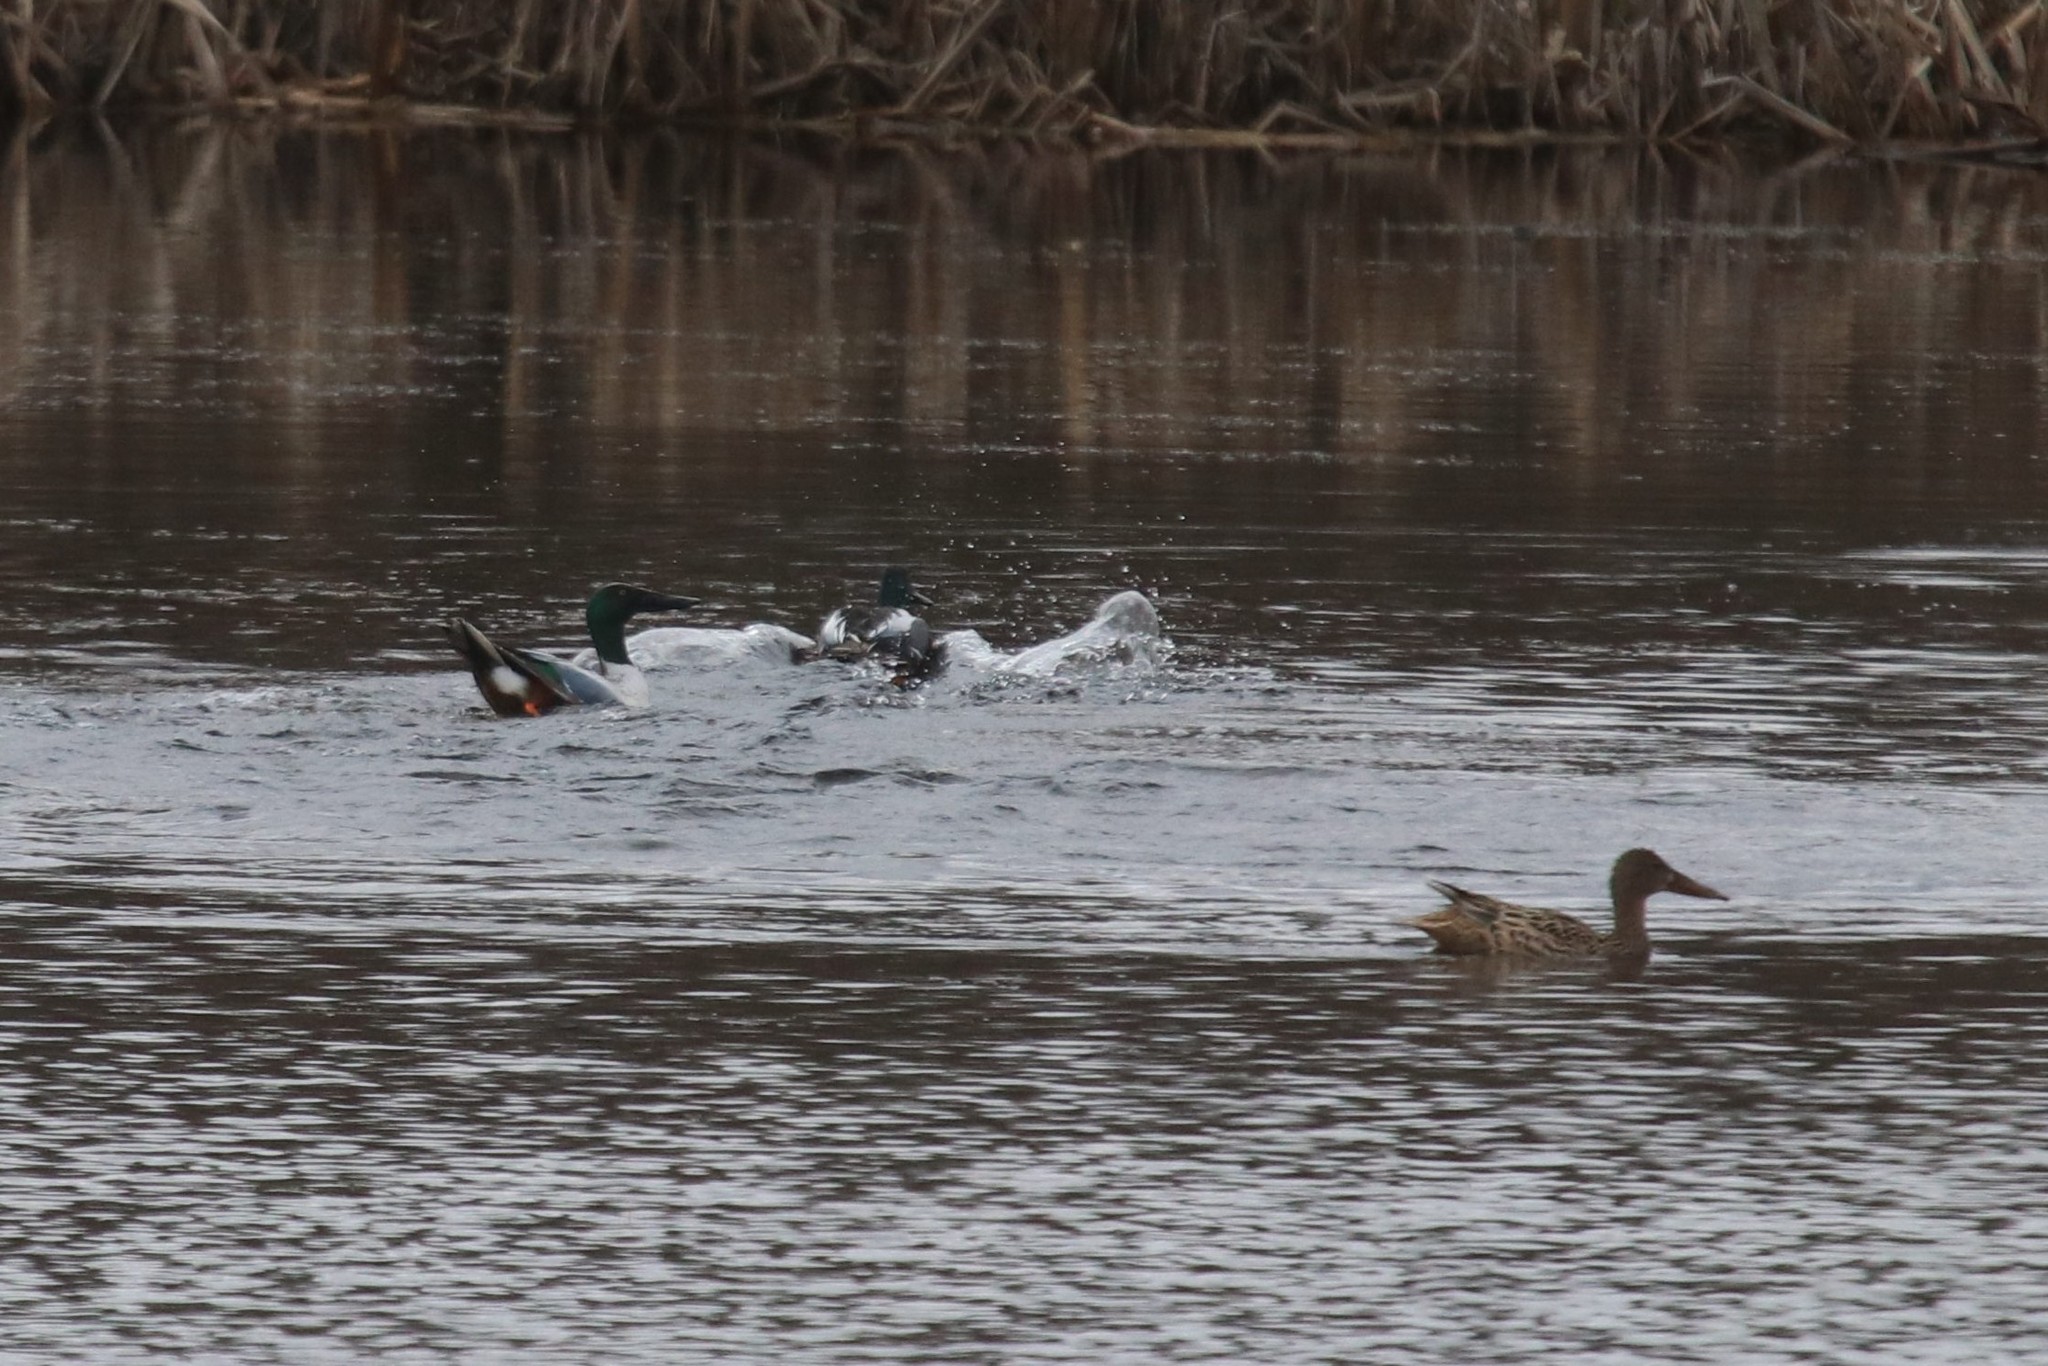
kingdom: Animalia
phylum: Chordata
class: Aves
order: Anseriformes
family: Anatidae
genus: Spatula
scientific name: Spatula clypeata
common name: Northern shoveler
